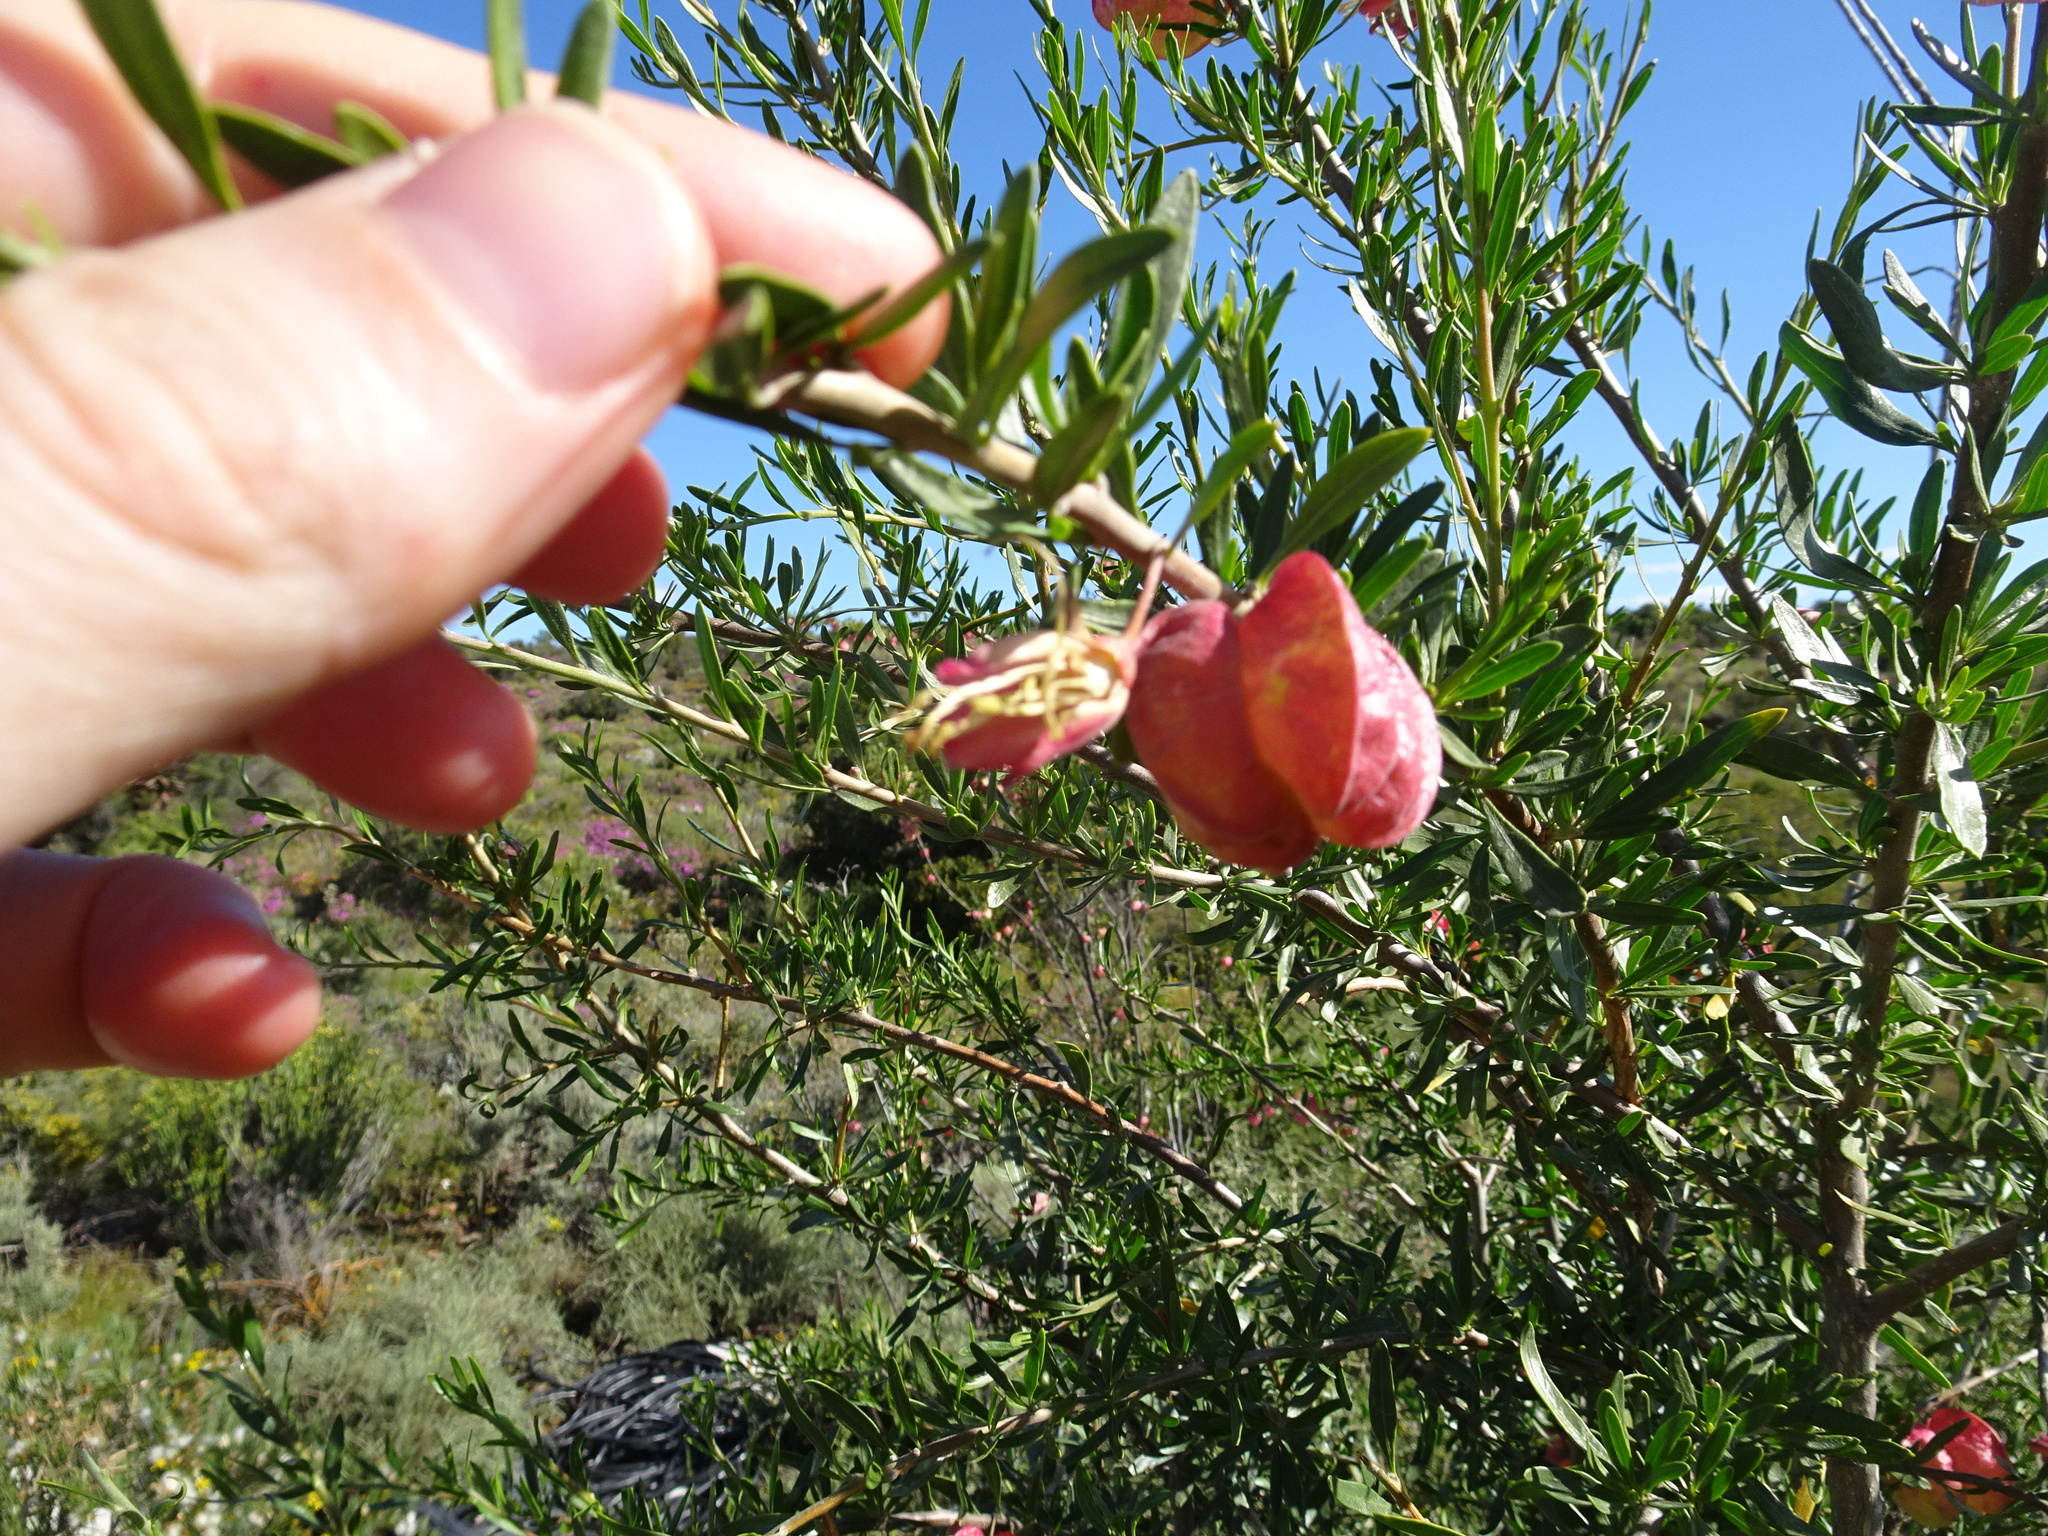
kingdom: Plantae
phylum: Tracheophyta
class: Magnoliopsida
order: Sapindales
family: Meliaceae
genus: Nymania
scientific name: Nymania capensis
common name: Chinese lantern tree
